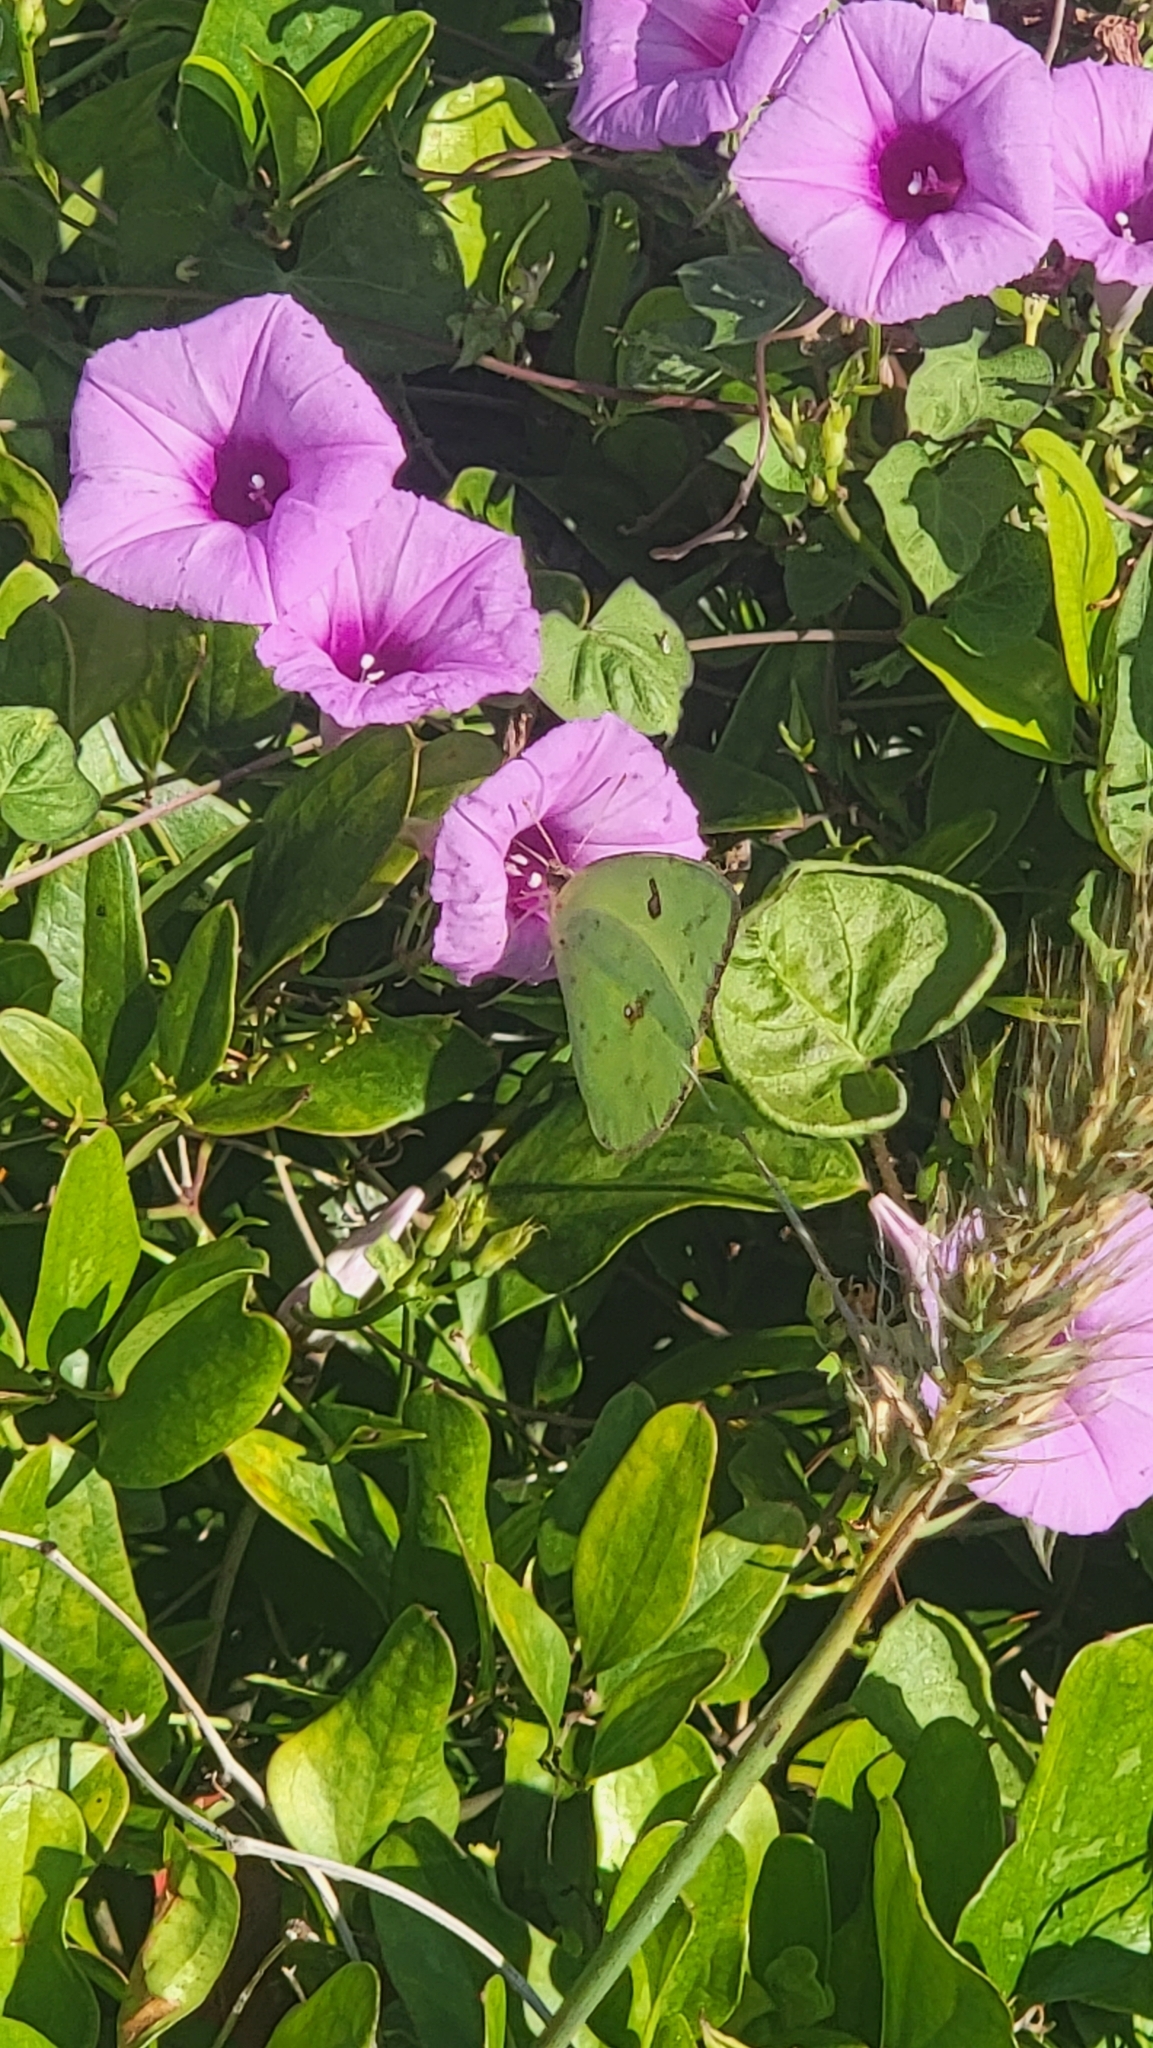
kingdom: Animalia
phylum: Arthropoda
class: Insecta
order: Lepidoptera
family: Pieridae
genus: Phoebis
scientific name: Phoebis sennae
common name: Cloudless sulphur
